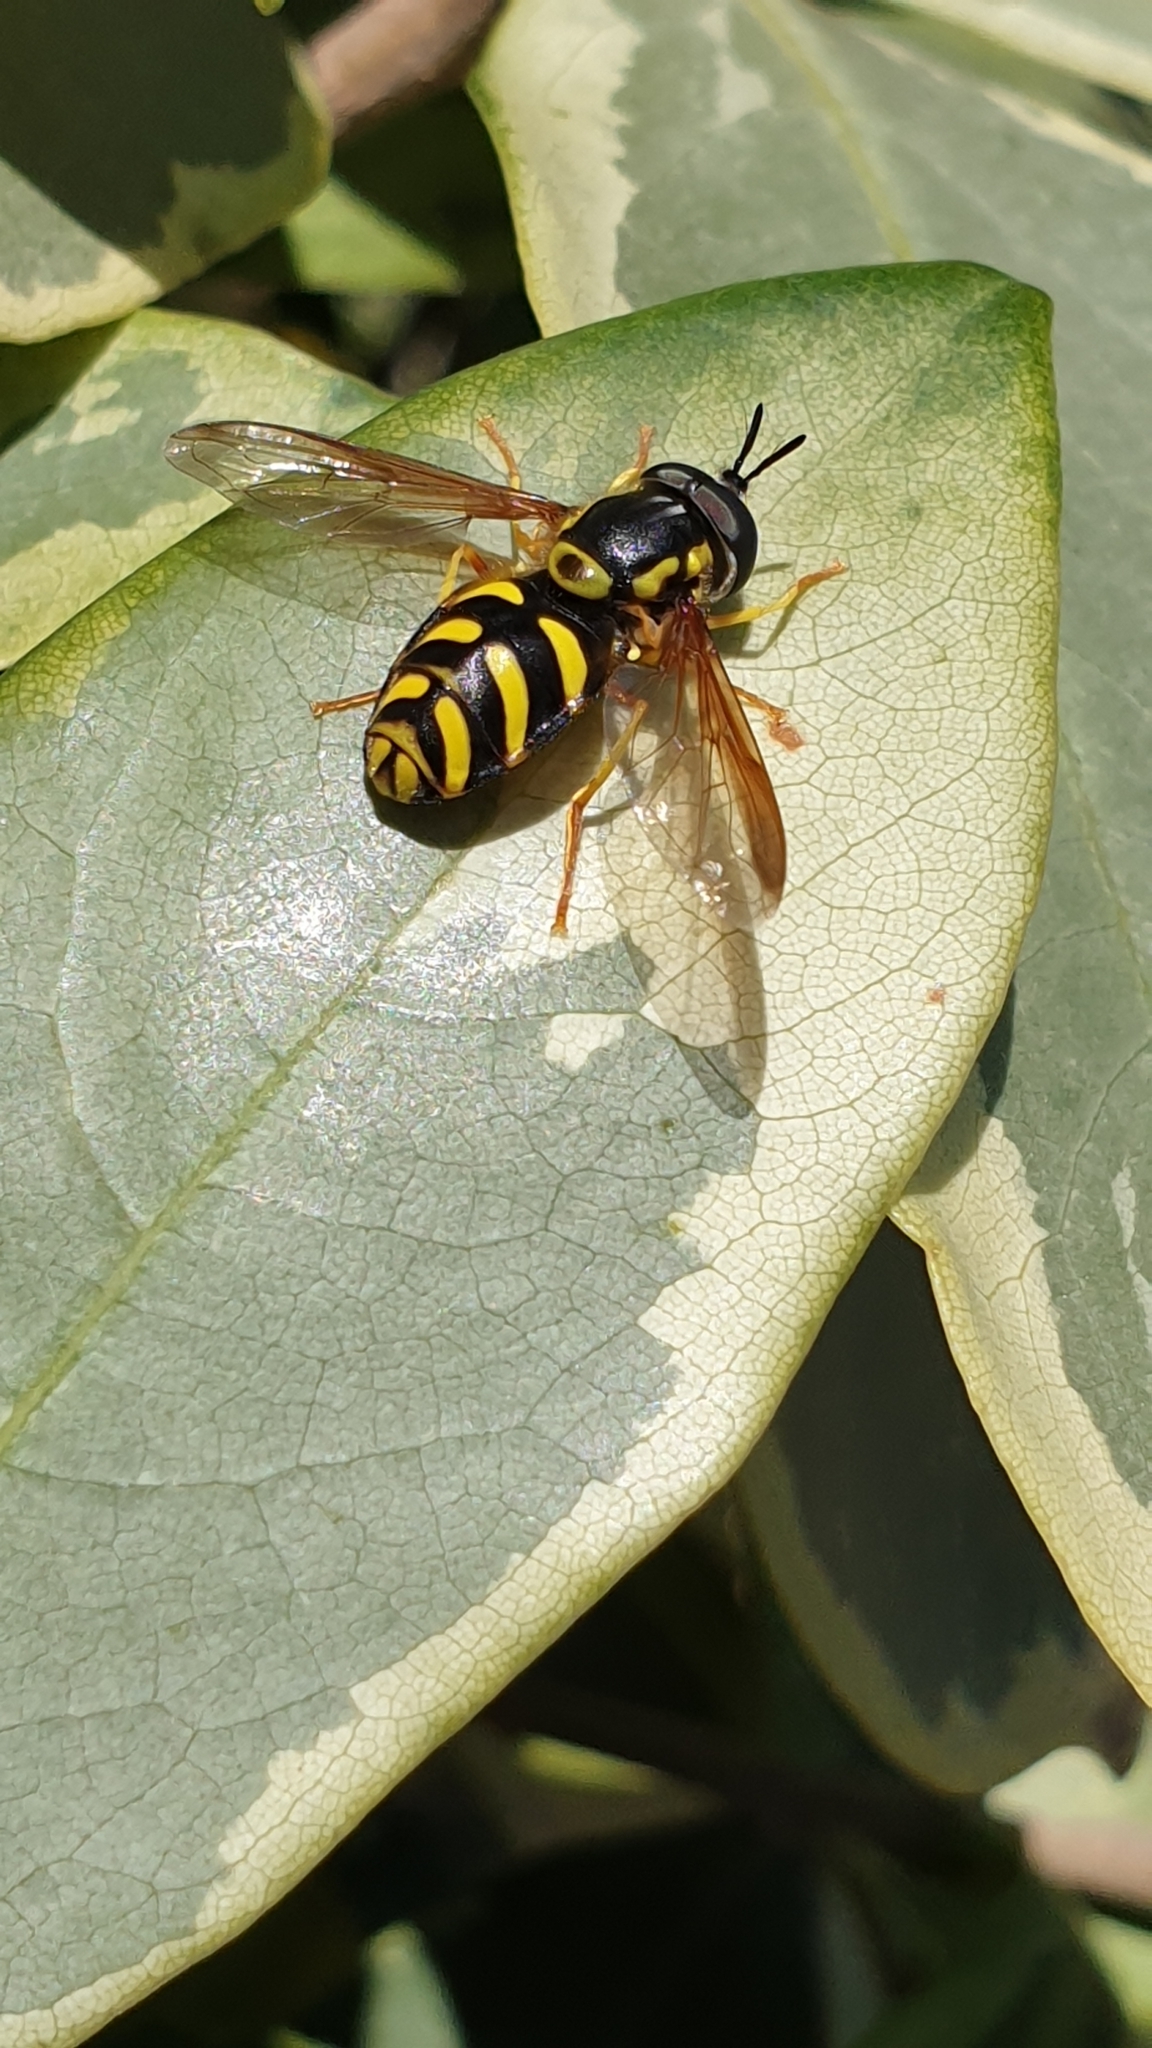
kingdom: Animalia
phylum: Arthropoda
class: Insecta
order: Diptera
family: Syrphidae
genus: Chrysotoxum
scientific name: Chrysotoxum
